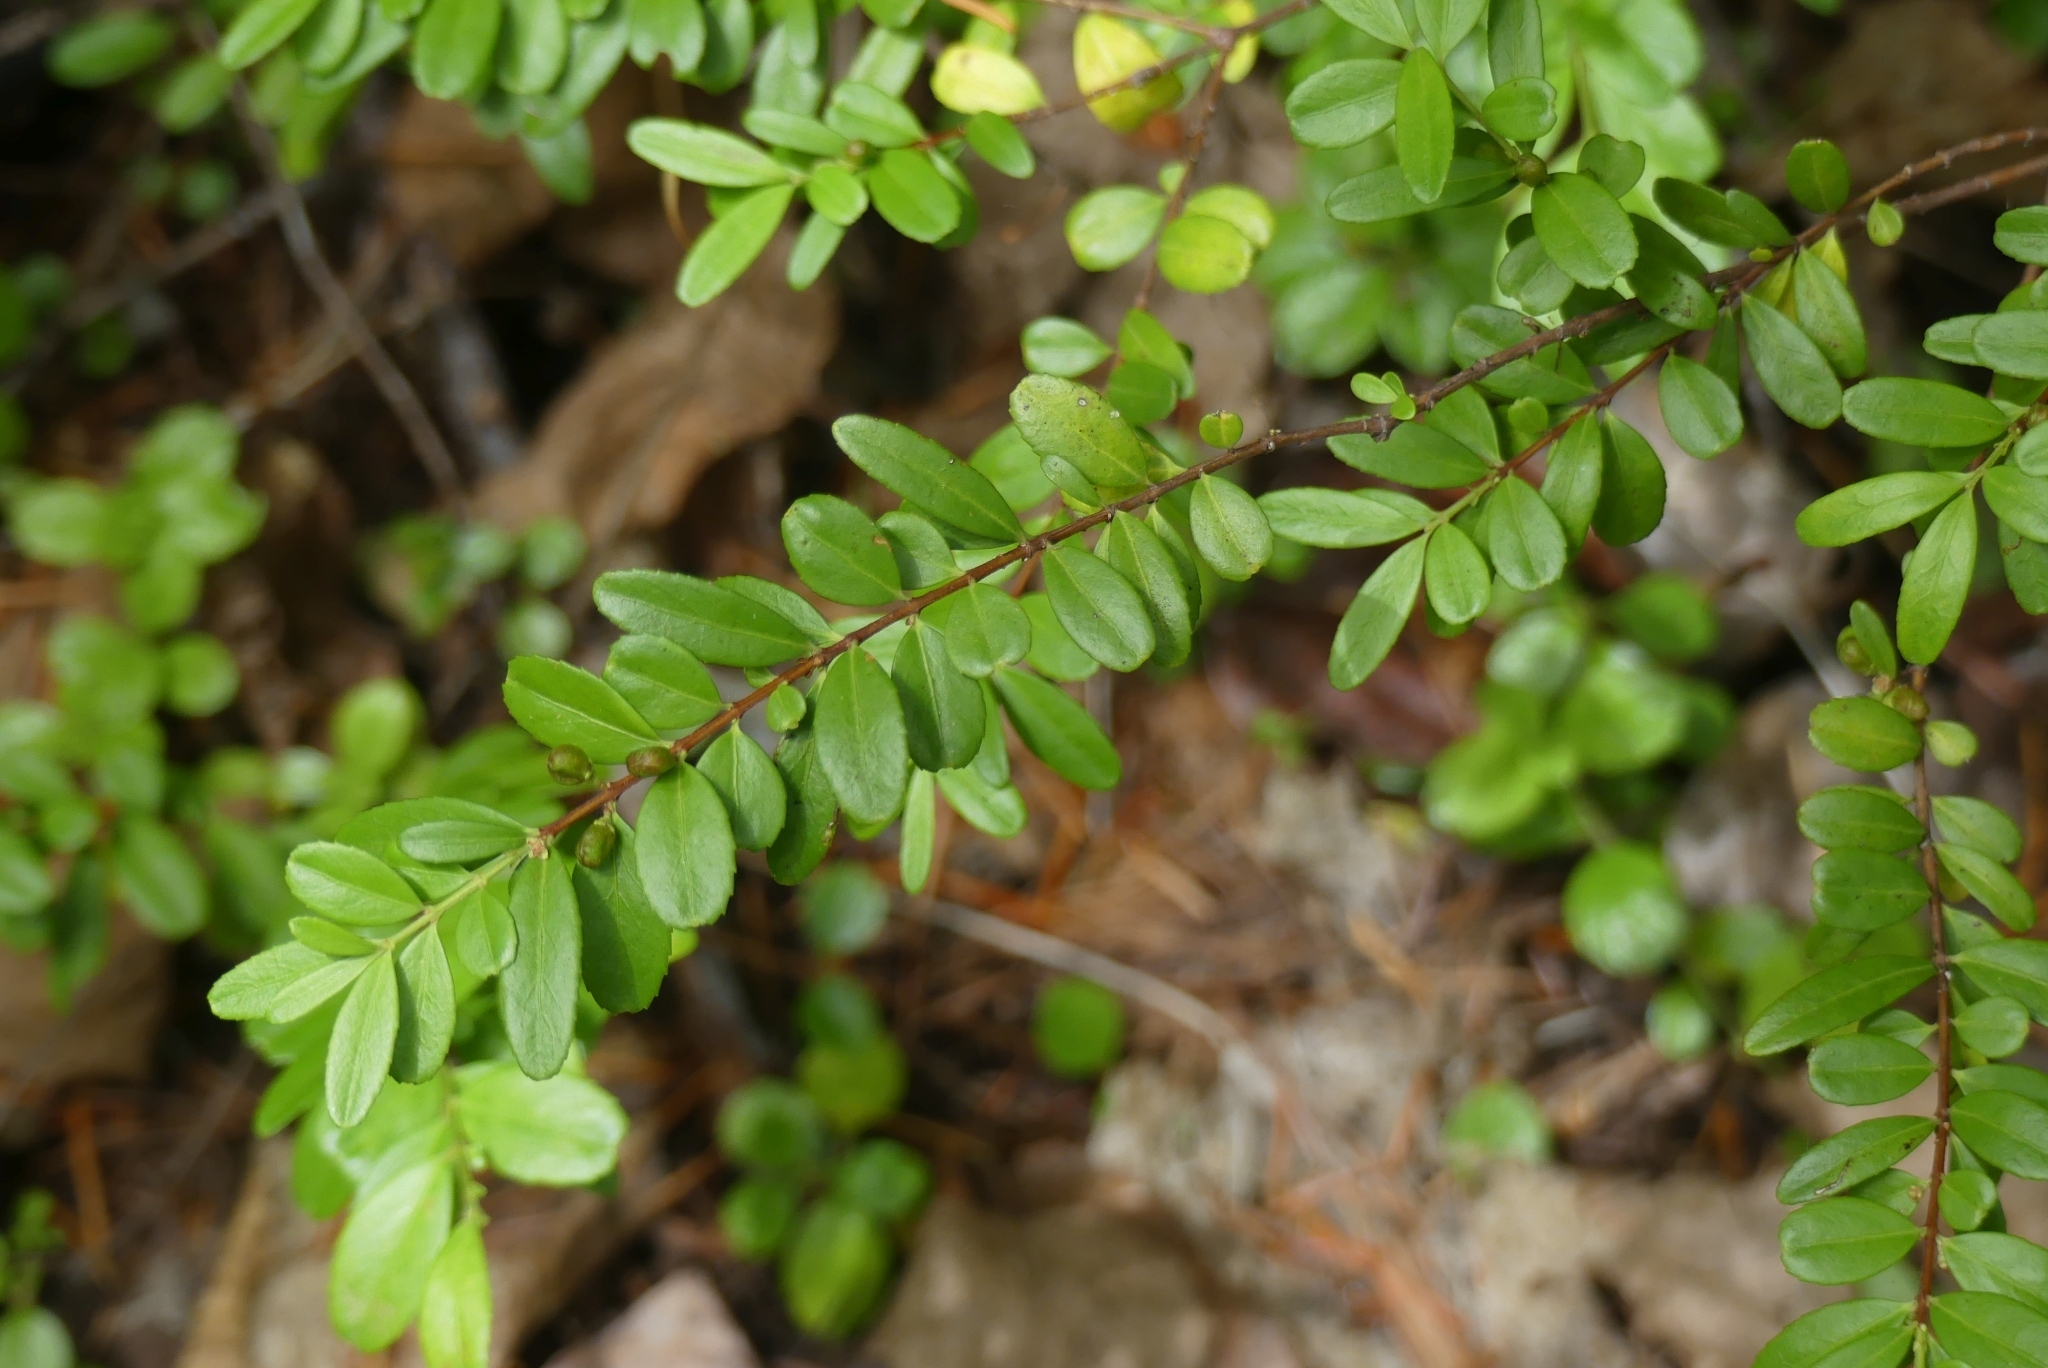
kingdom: Plantae
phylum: Tracheophyta
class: Magnoliopsida
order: Celastrales
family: Celastraceae
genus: Paxistima
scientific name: Paxistima myrsinites
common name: Mountain-lover
